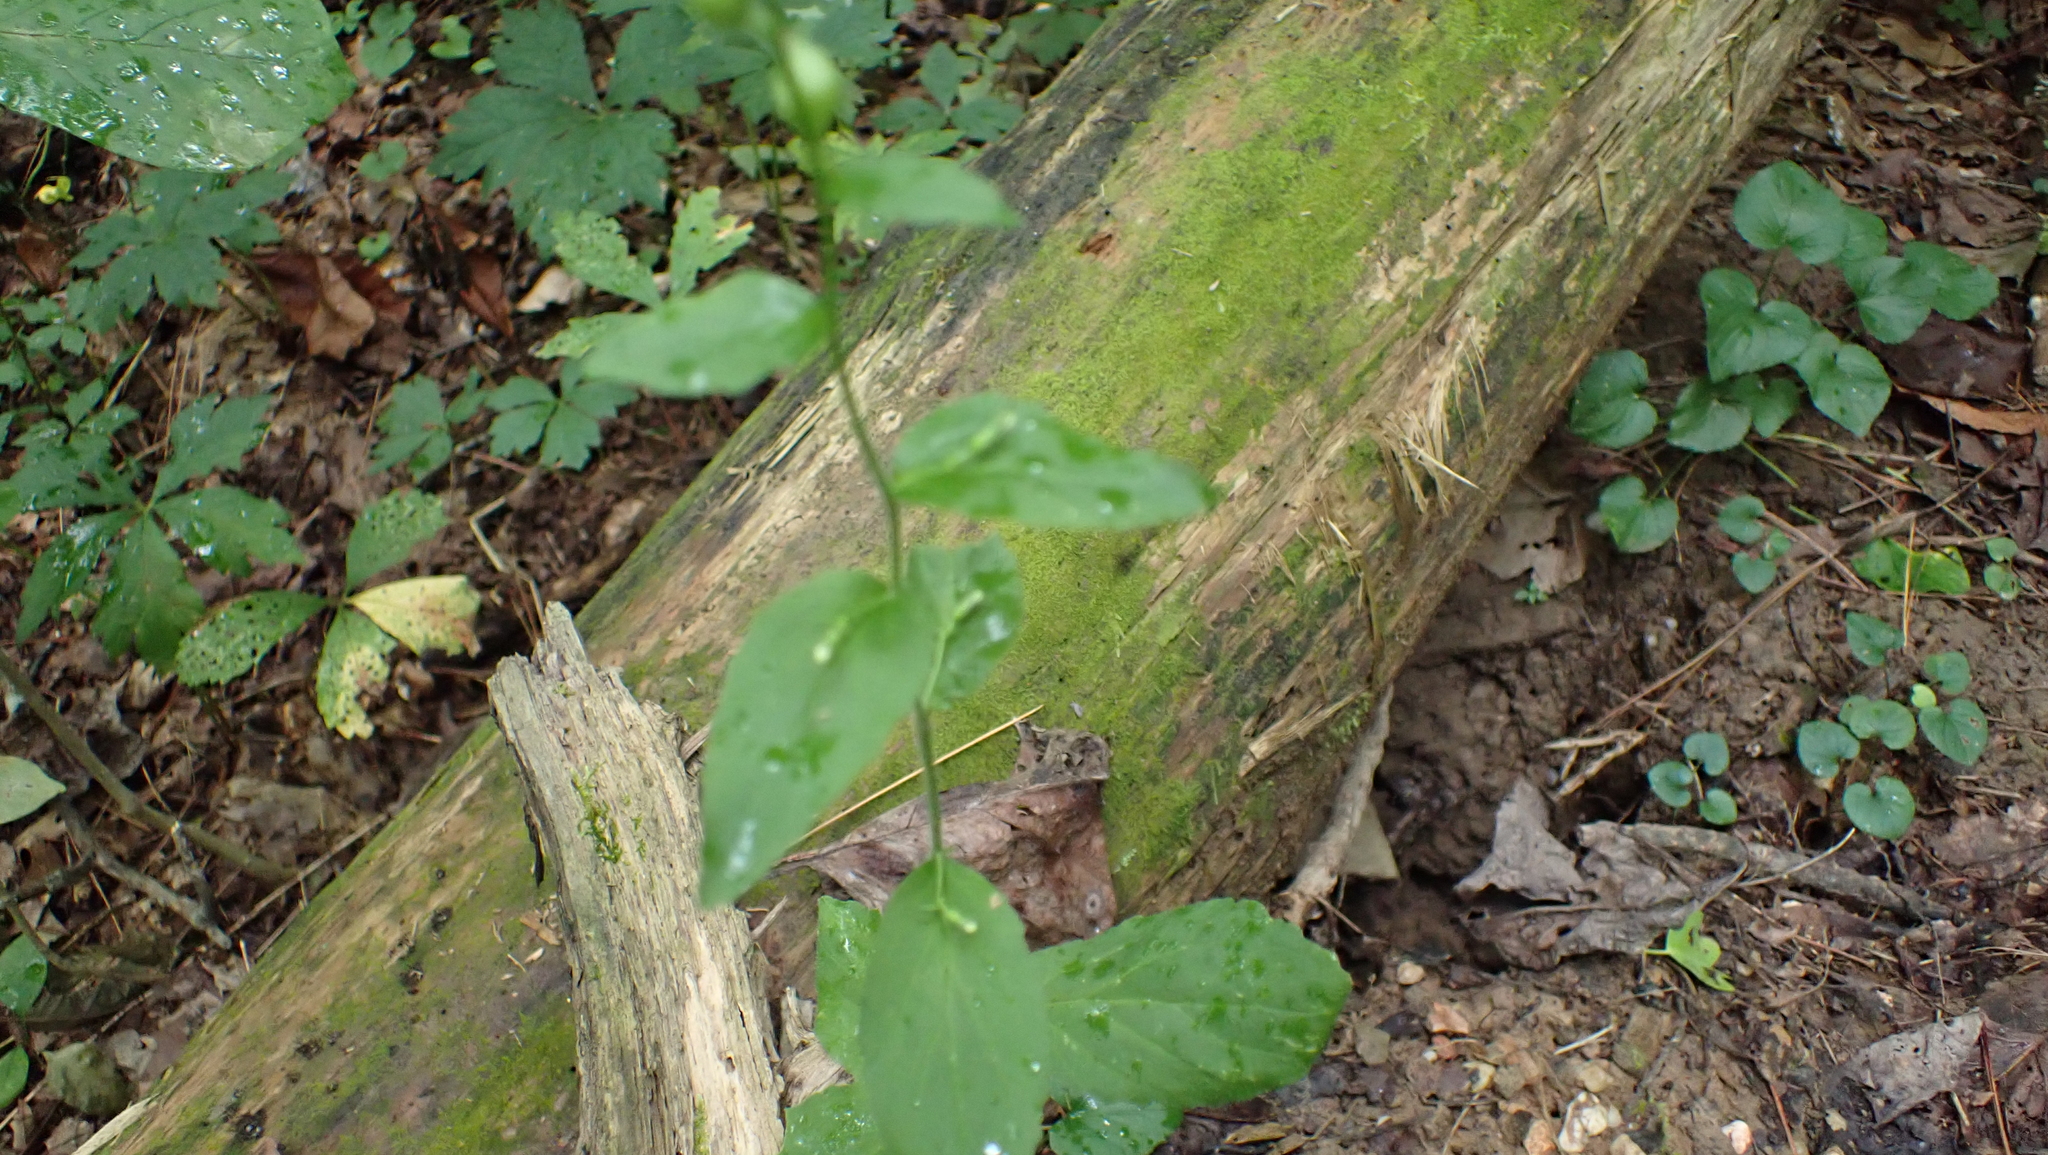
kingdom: Plantae
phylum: Tracheophyta
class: Magnoliopsida
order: Asterales
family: Campanulaceae
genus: Lobelia
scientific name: Lobelia inflata
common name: Indian tobacco
